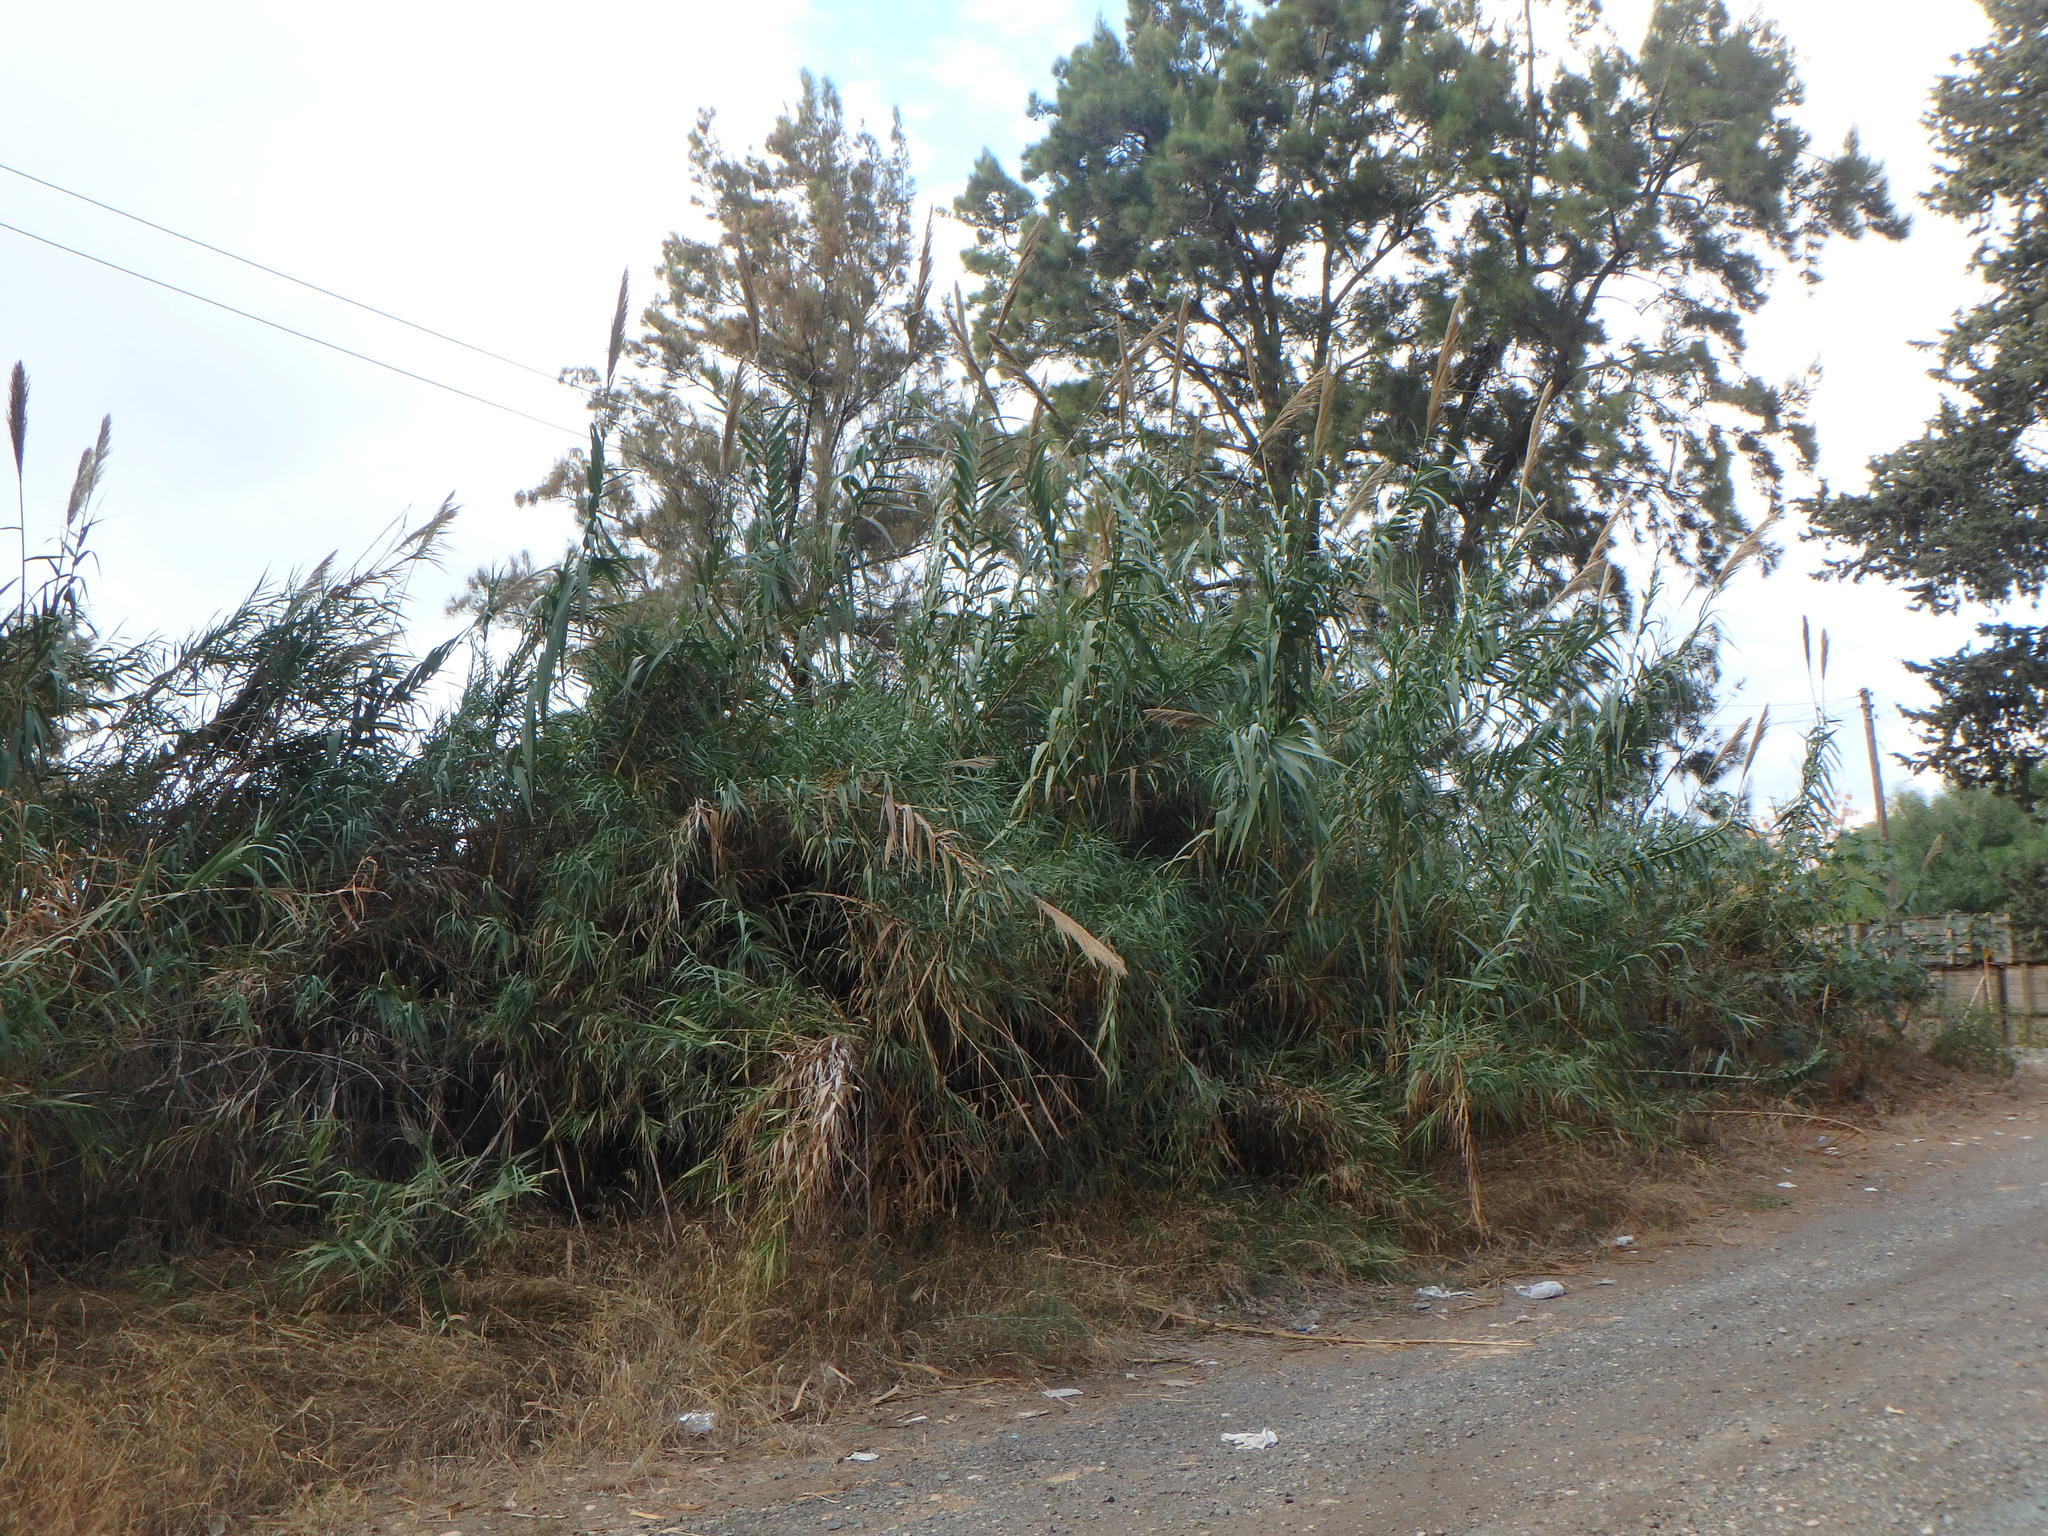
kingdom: Plantae
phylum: Tracheophyta
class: Liliopsida
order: Poales
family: Poaceae
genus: Arundo
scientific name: Arundo donax
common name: Giant reed
